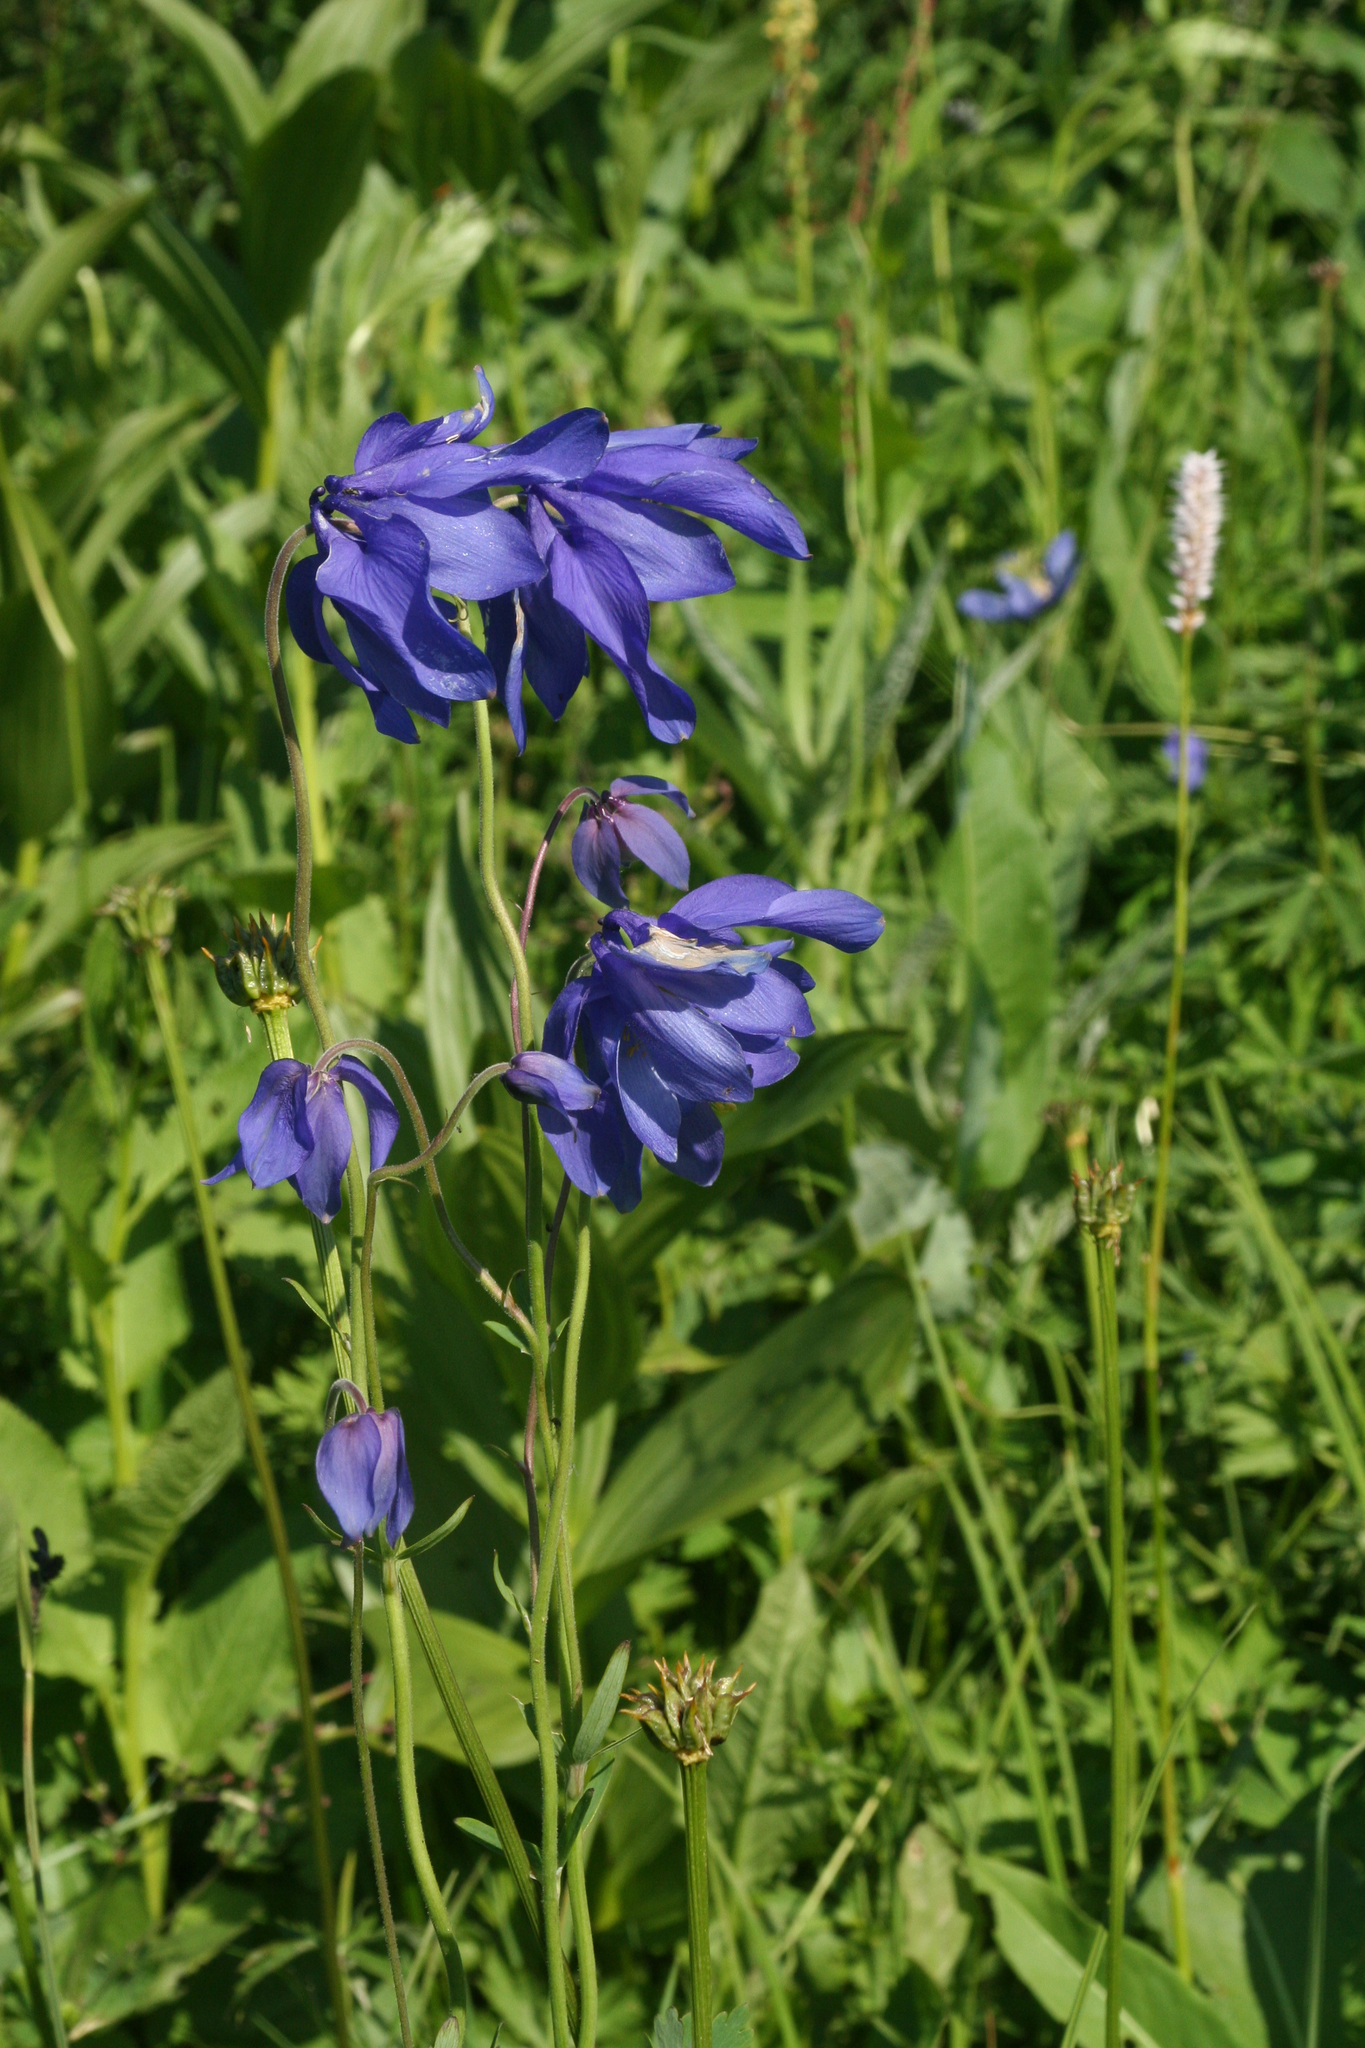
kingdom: Plantae
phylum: Tracheophyta
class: Magnoliopsida
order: Ranunculales
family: Ranunculaceae
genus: Aquilegia
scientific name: Aquilegia glandulosa
